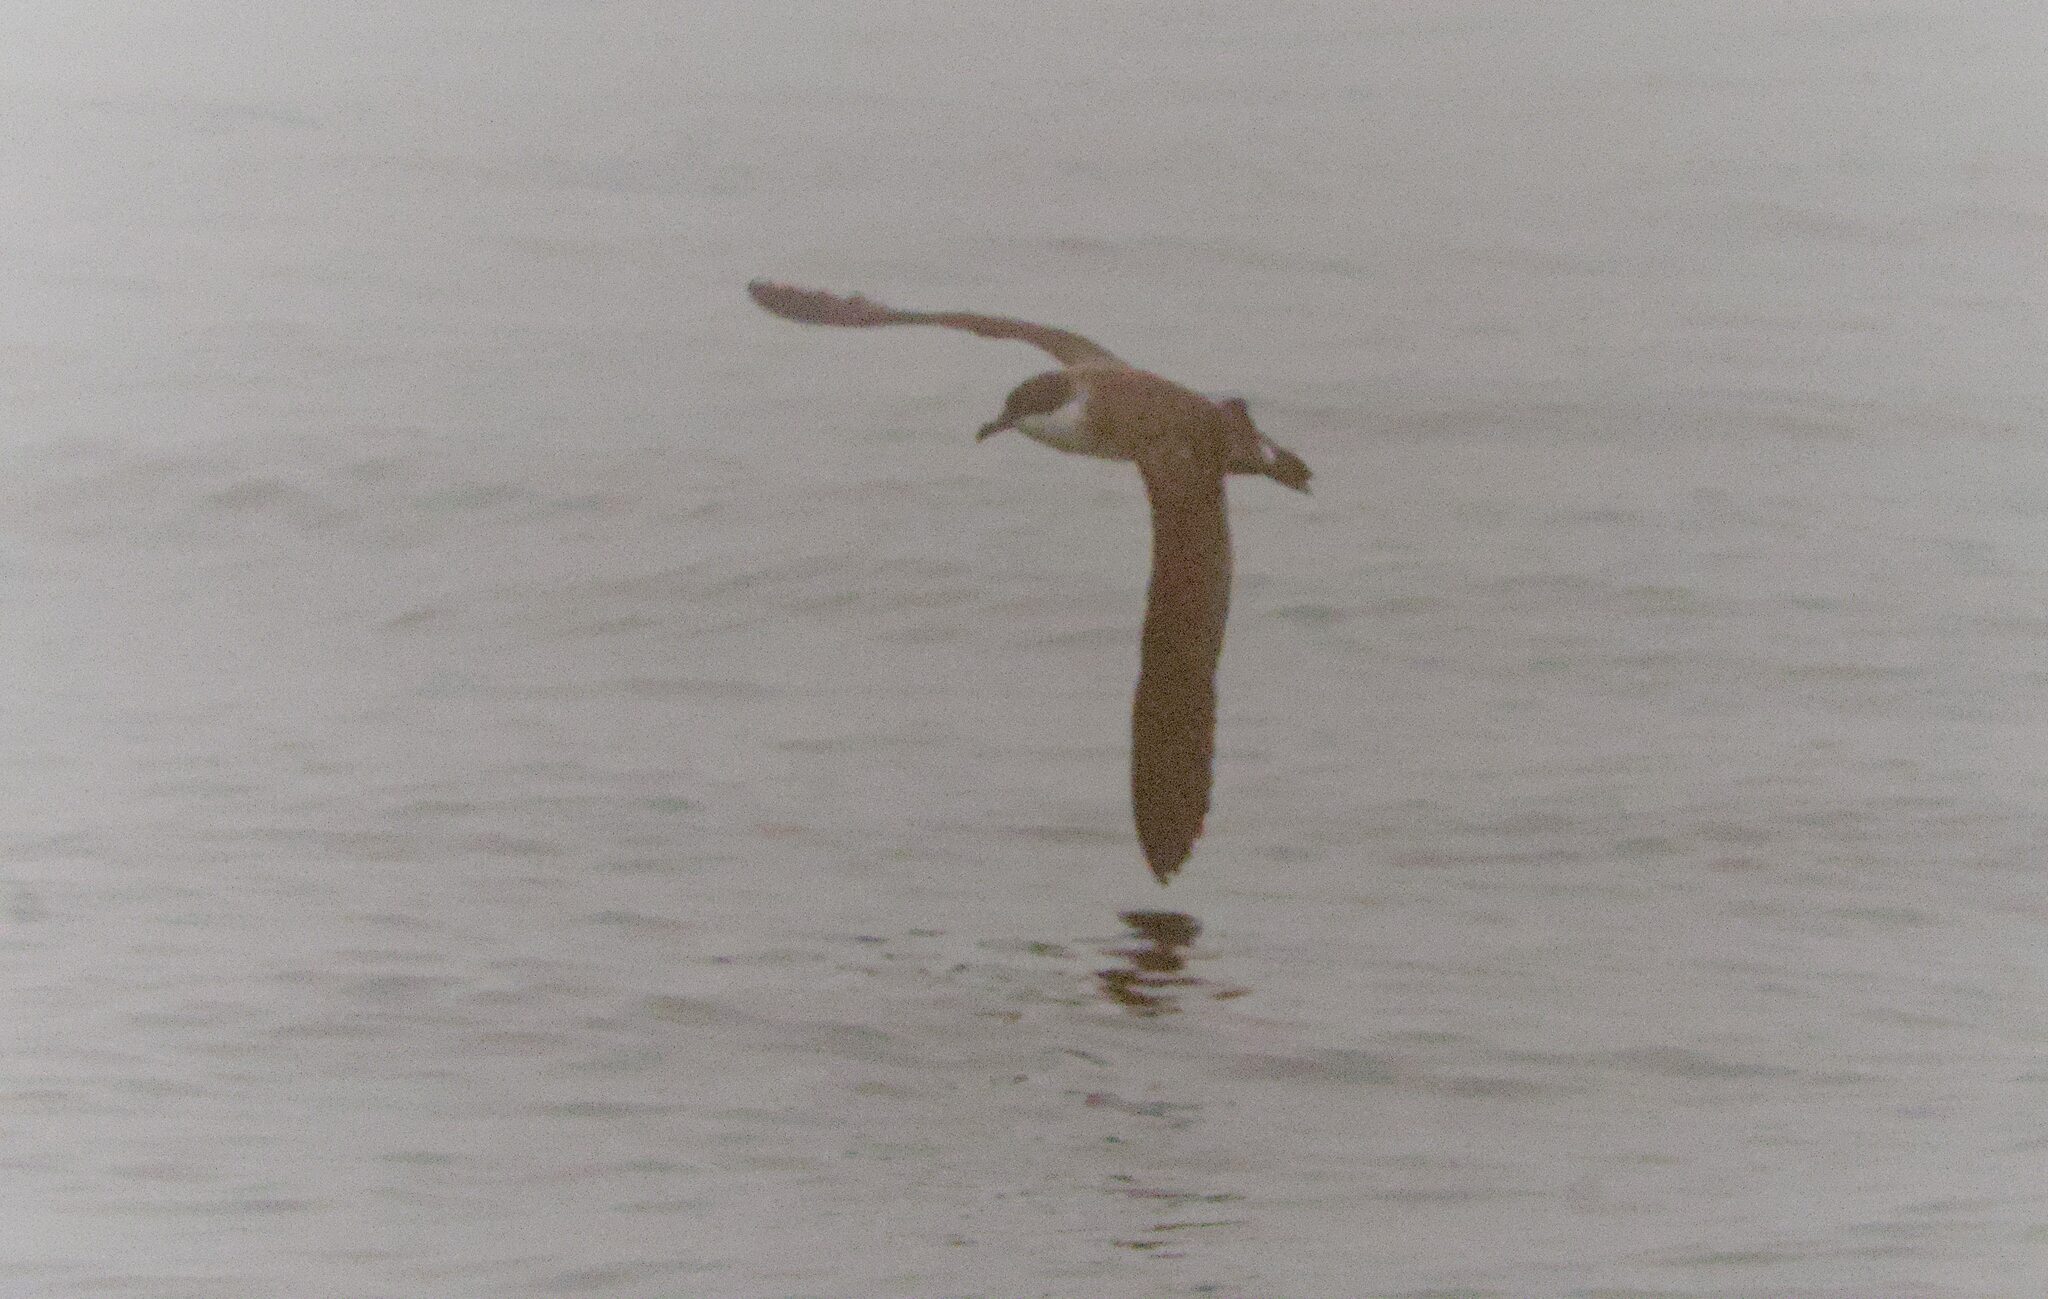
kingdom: Animalia
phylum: Chordata
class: Aves
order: Procellariiformes
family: Procellariidae
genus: Puffinus
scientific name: Puffinus gravis
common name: Great shearwater
